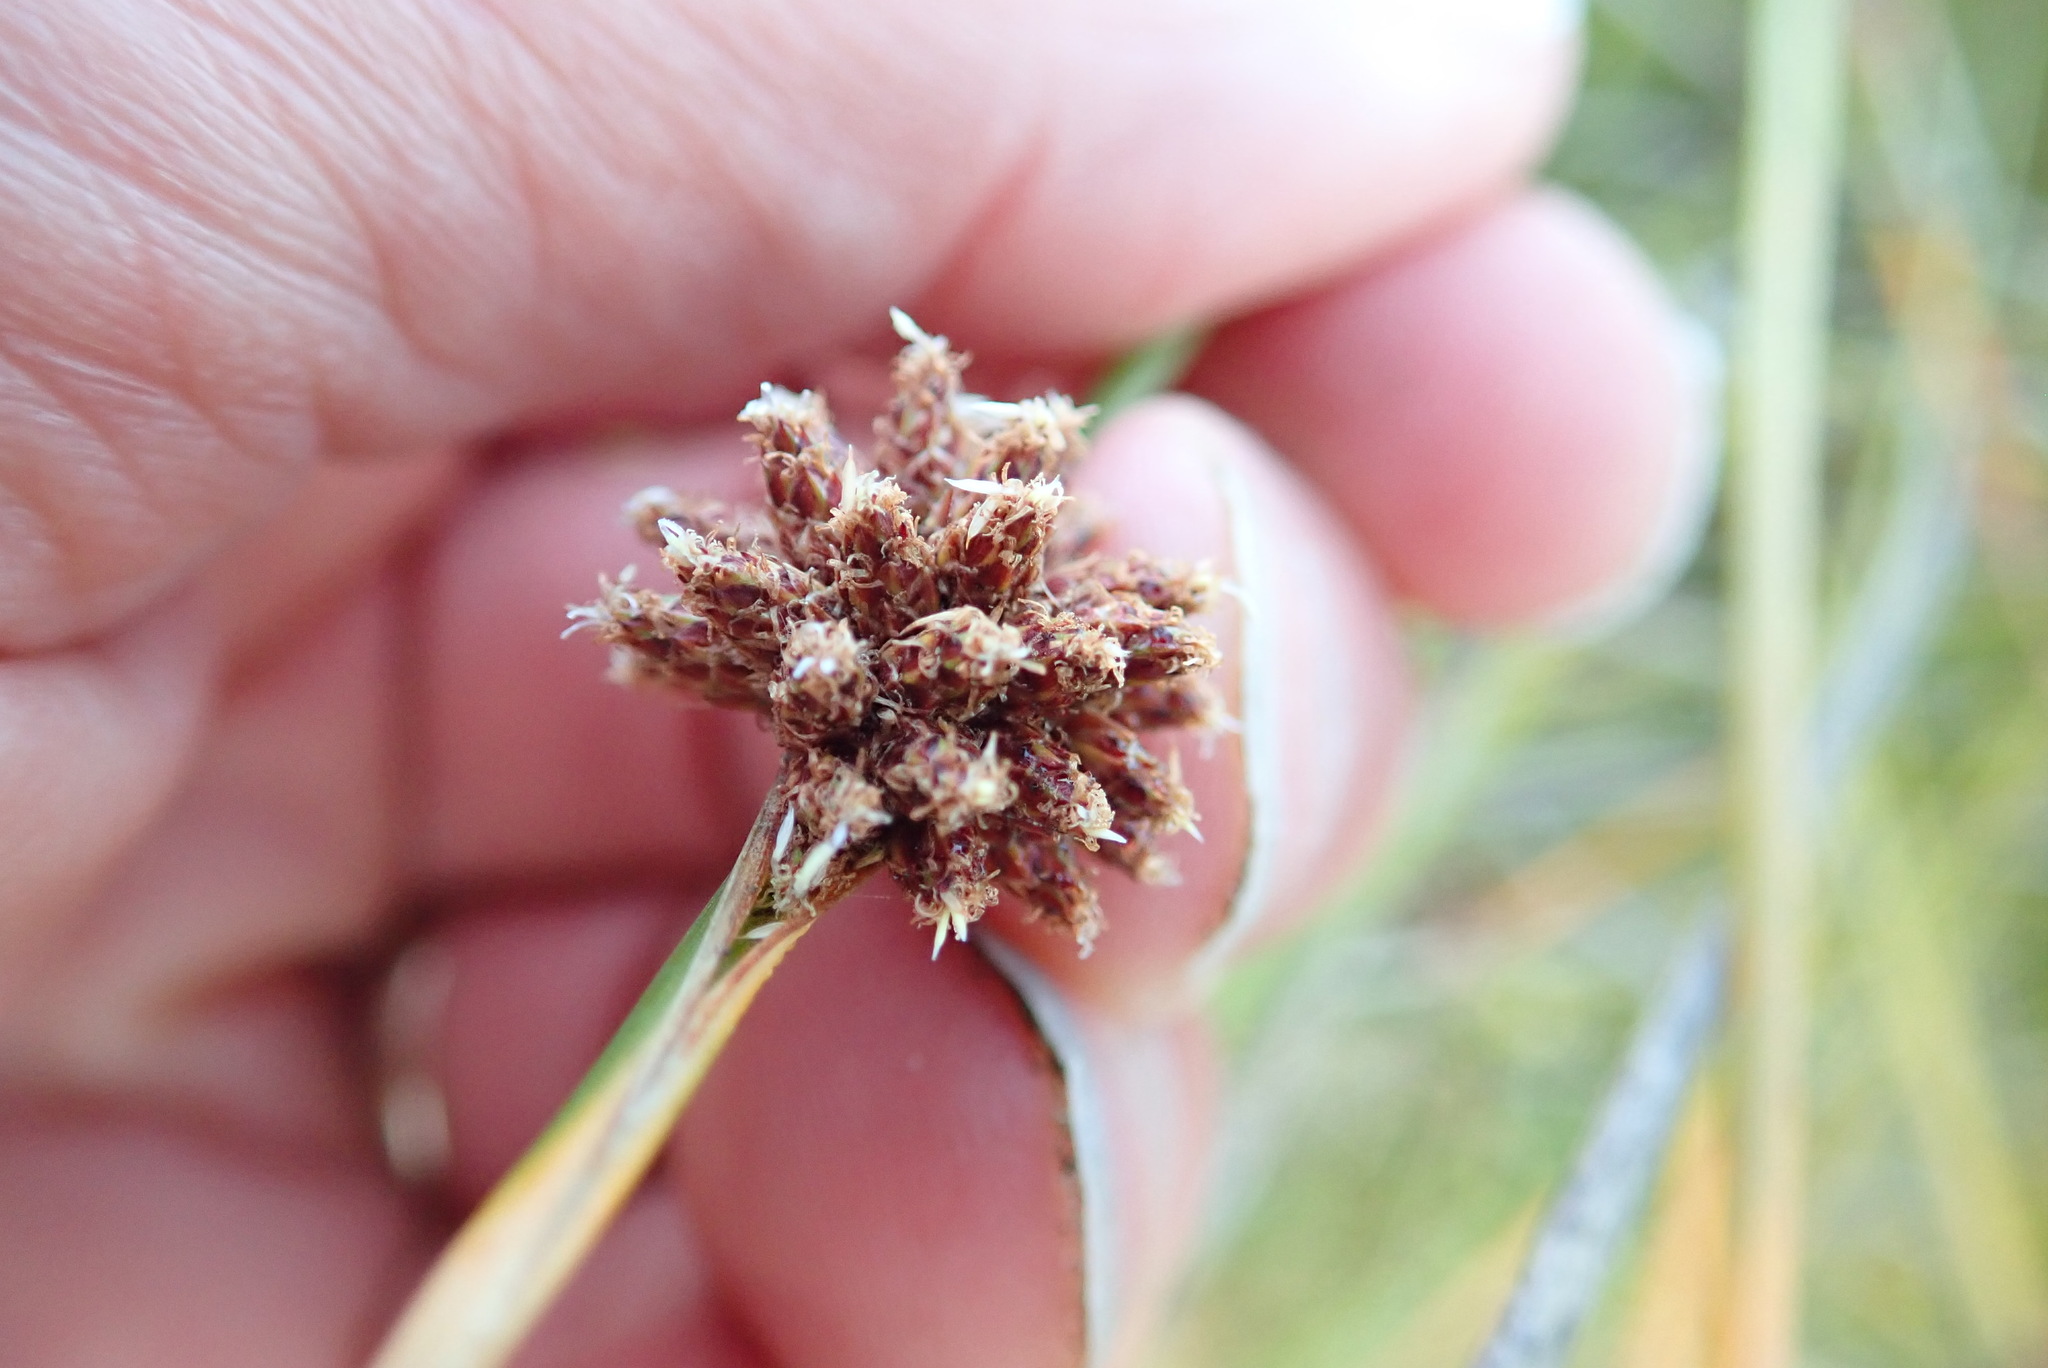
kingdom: Plantae
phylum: Tracheophyta
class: Liliopsida
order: Poales
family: Cyperaceae
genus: Ficinia
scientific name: Ficinia nodosa
